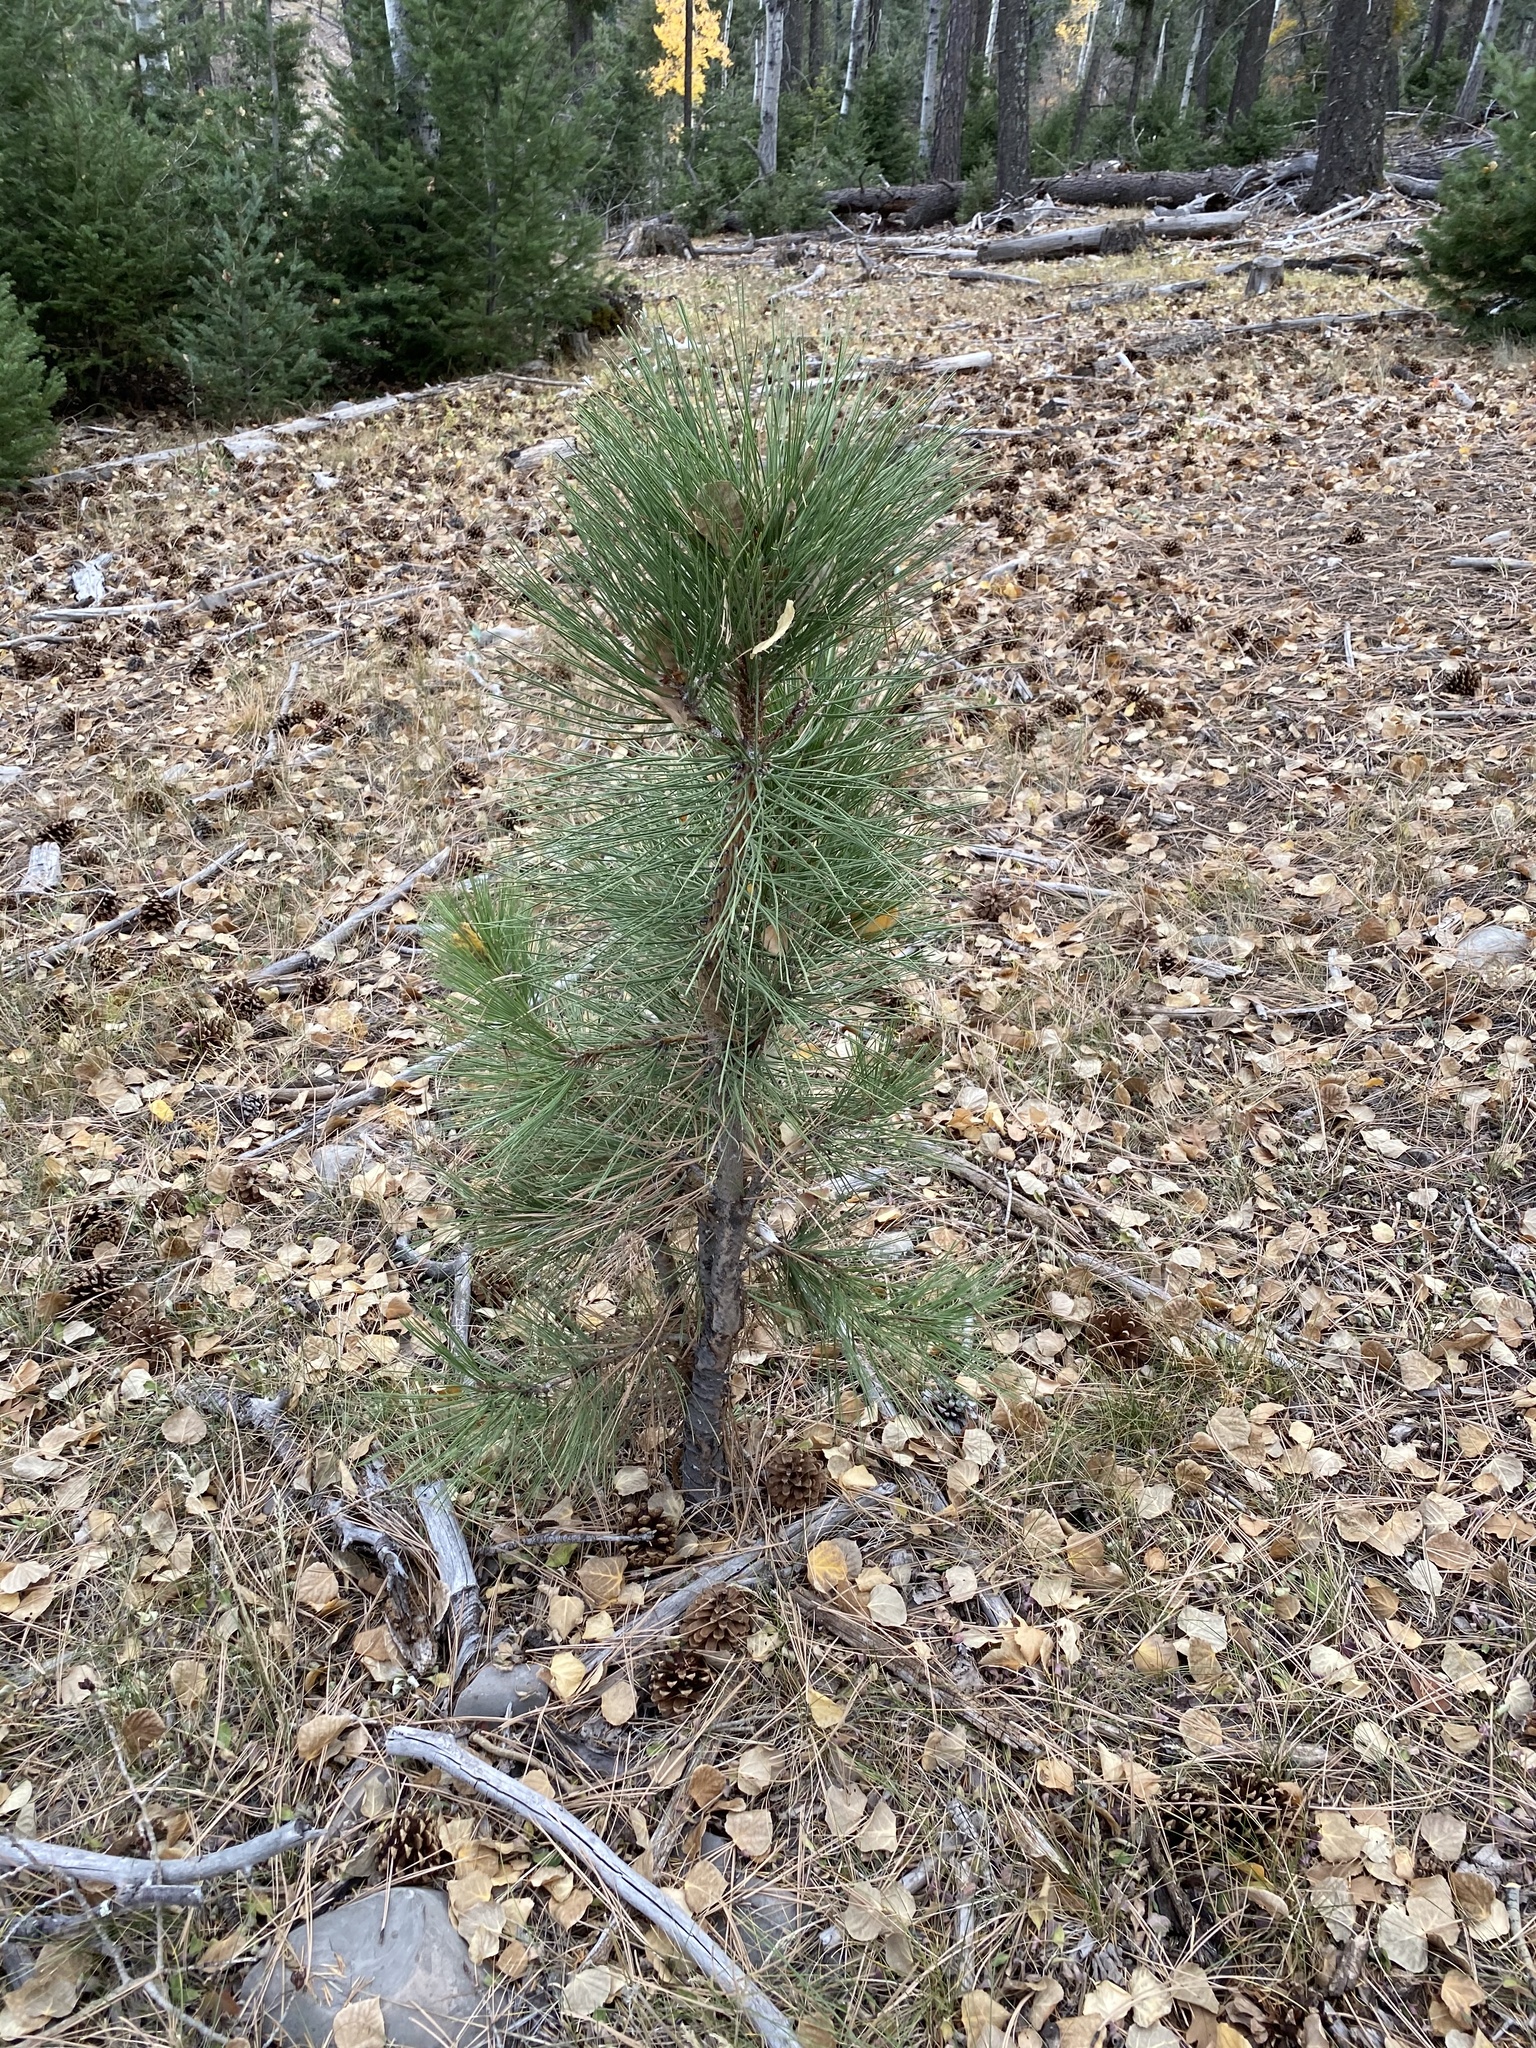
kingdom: Plantae
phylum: Tracheophyta
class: Pinopsida
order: Pinales
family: Pinaceae
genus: Pinus
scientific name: Pinus ponderosa
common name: Western yellow-pine
